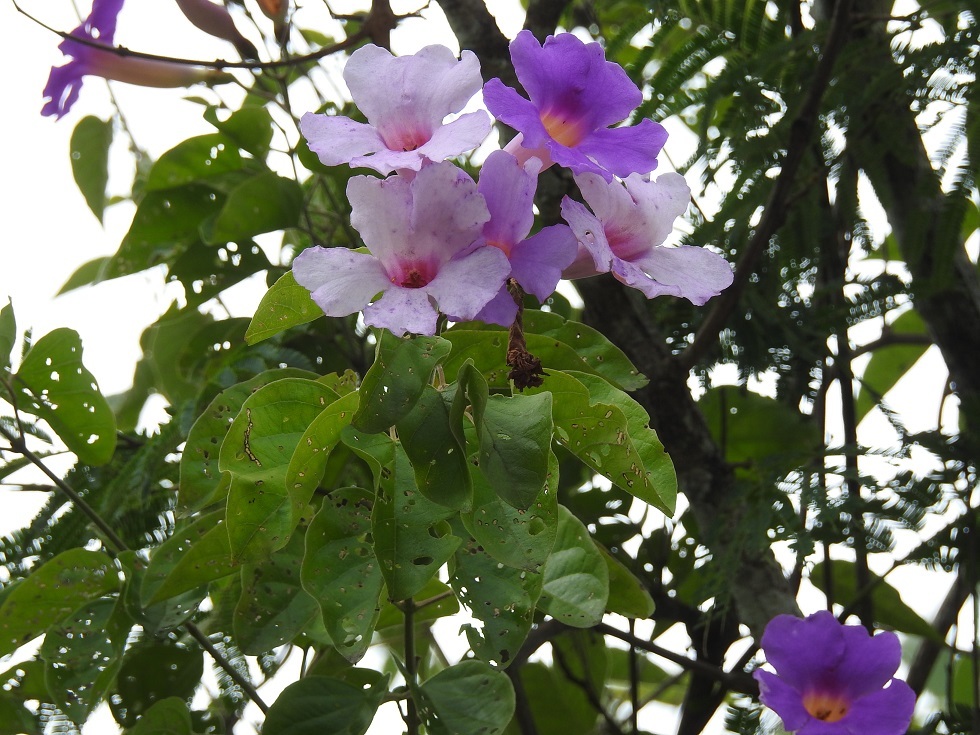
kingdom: Plantae
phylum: Tracheophyta
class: Magnoliopsida
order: Lamiales
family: Bignoniaceae
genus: Amphilophium
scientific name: Amphilophium laxiflorum
